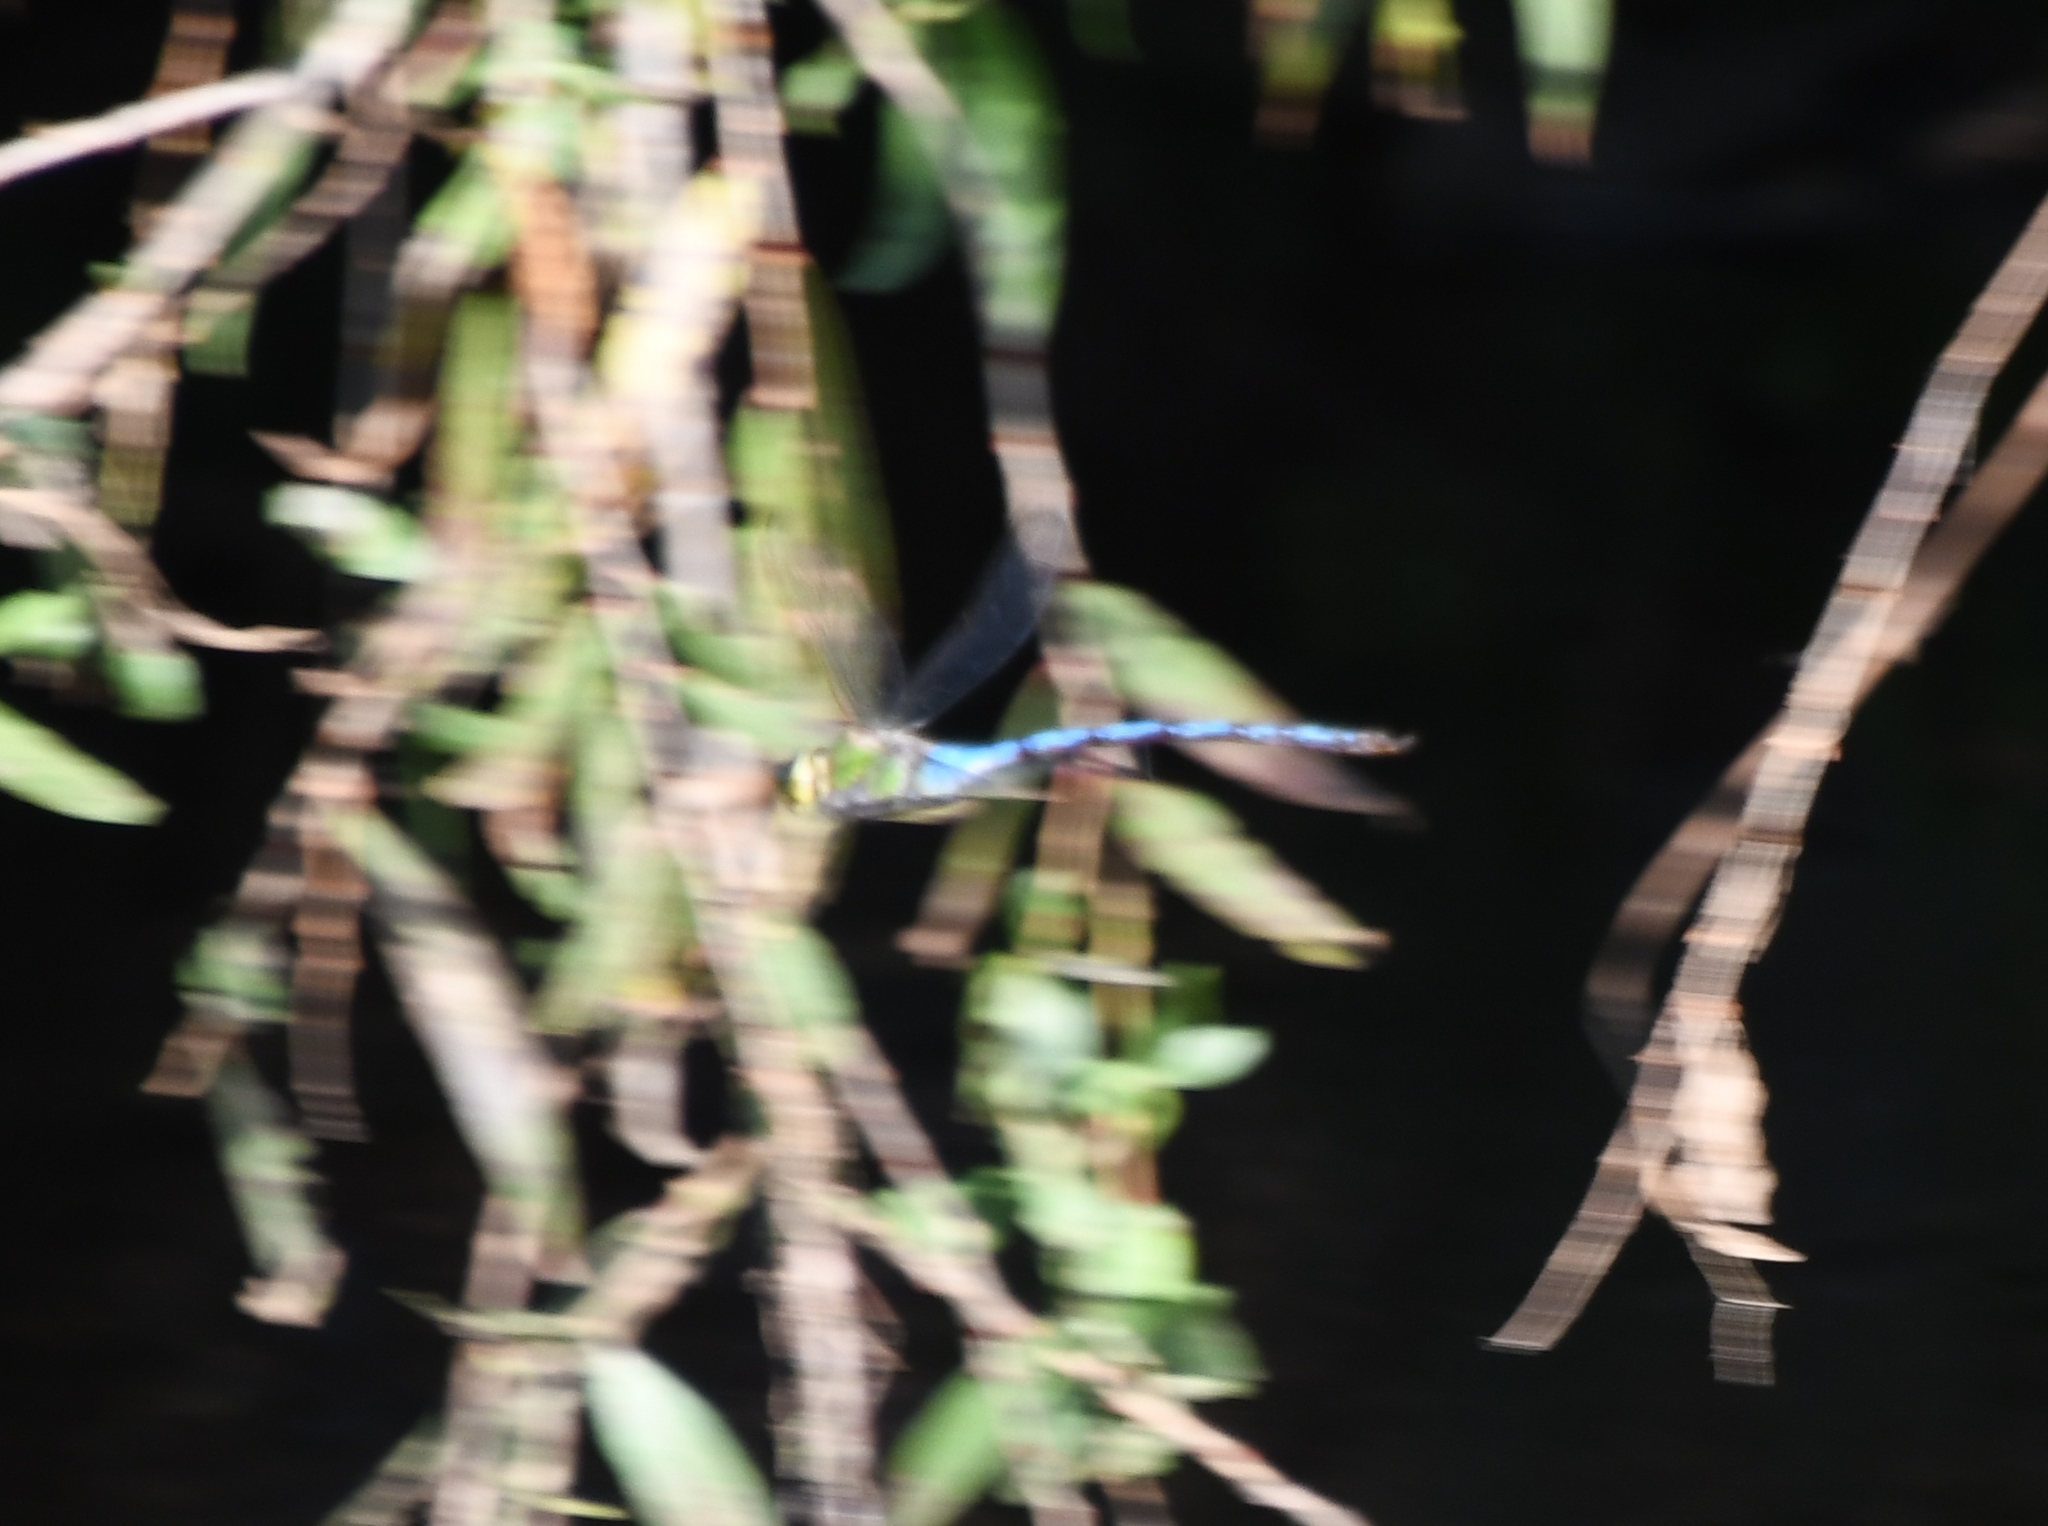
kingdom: Animalia
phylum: Arthropoda
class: Insecta
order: Odonata
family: Aeshnidae
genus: Anax
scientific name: Anax walsinghami
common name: Giant darner
